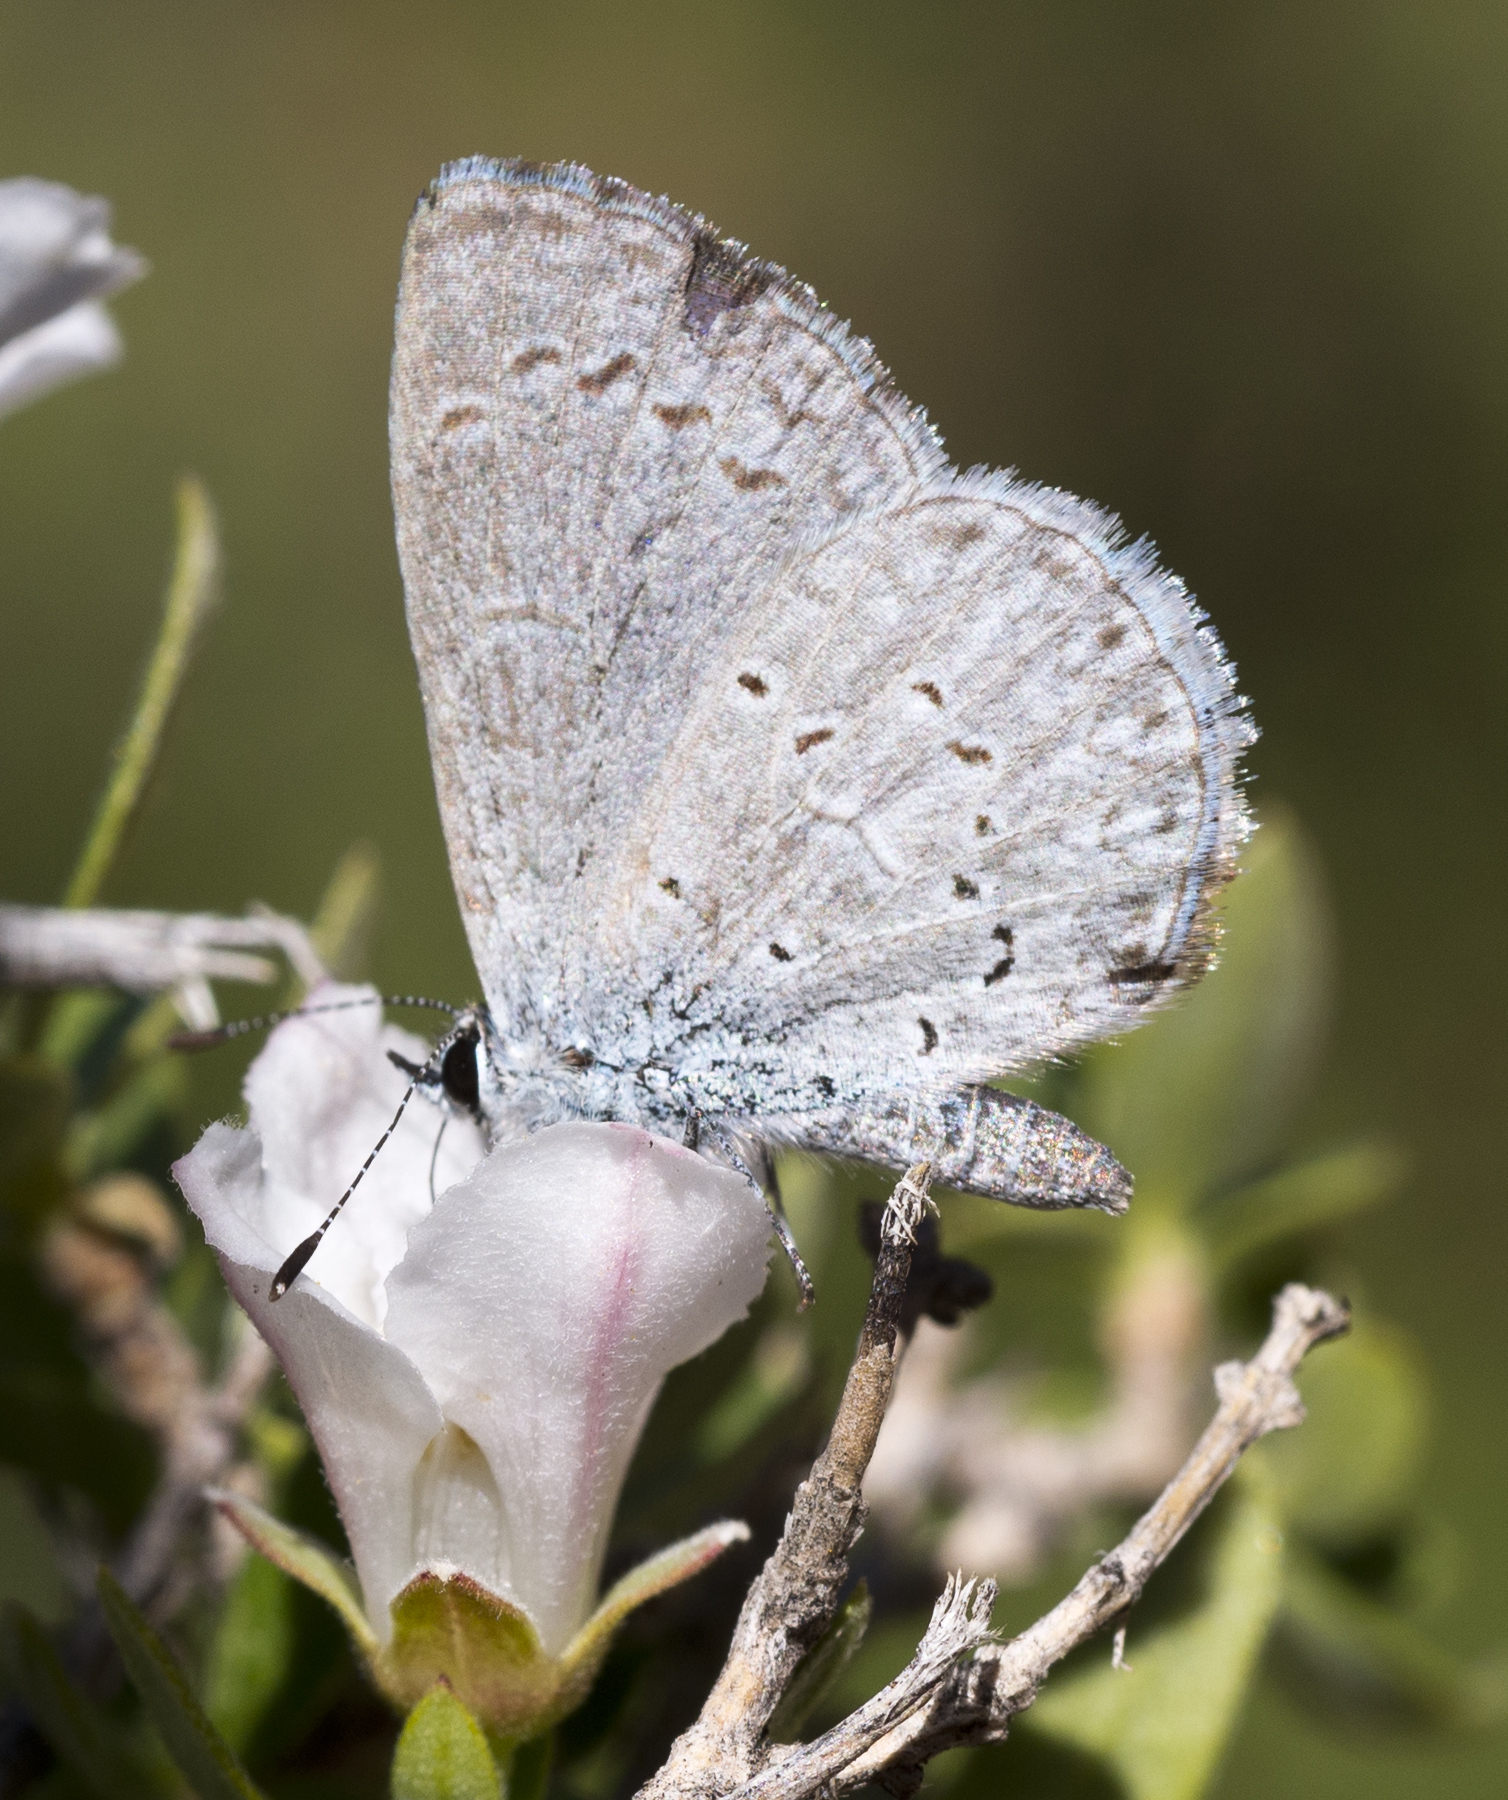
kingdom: Animalia
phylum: Arthropoda
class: Insecta
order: Lepidoptera
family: Lycaenidae
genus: Celastrina
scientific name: Celastrina ladon
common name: Spring azure
